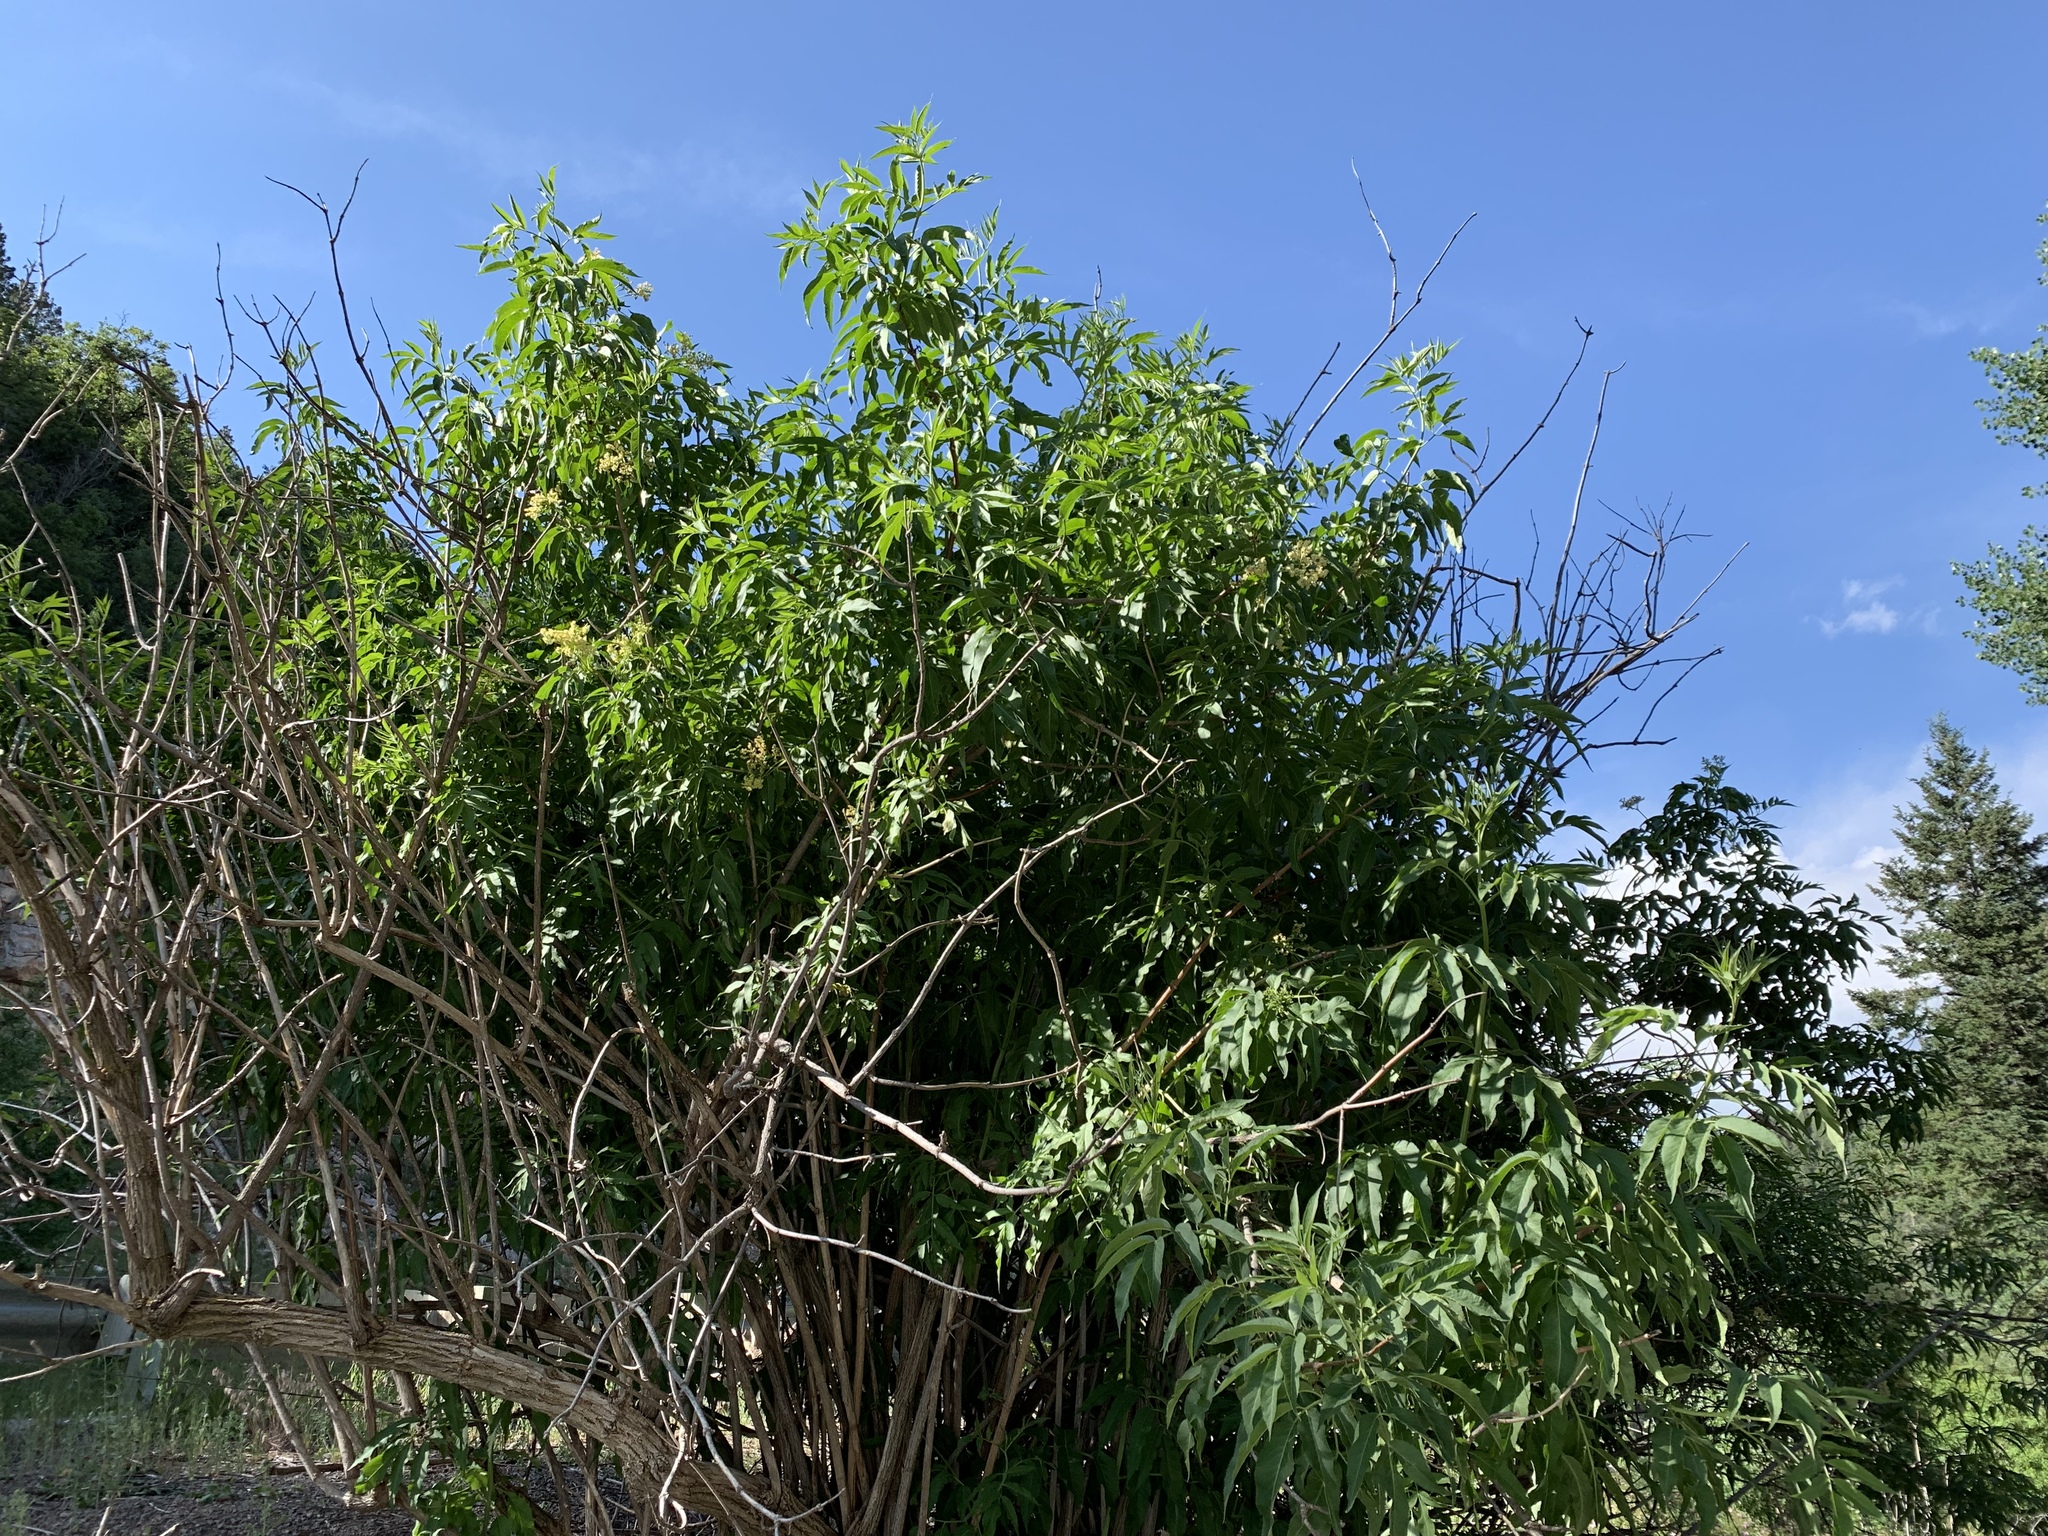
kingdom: Plantae
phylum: Tracheophyta
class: Magnoliopsida
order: Dipsacales
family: Viburnaceae
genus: Sambucus
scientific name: Sambucus cerulea
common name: Blue elder
